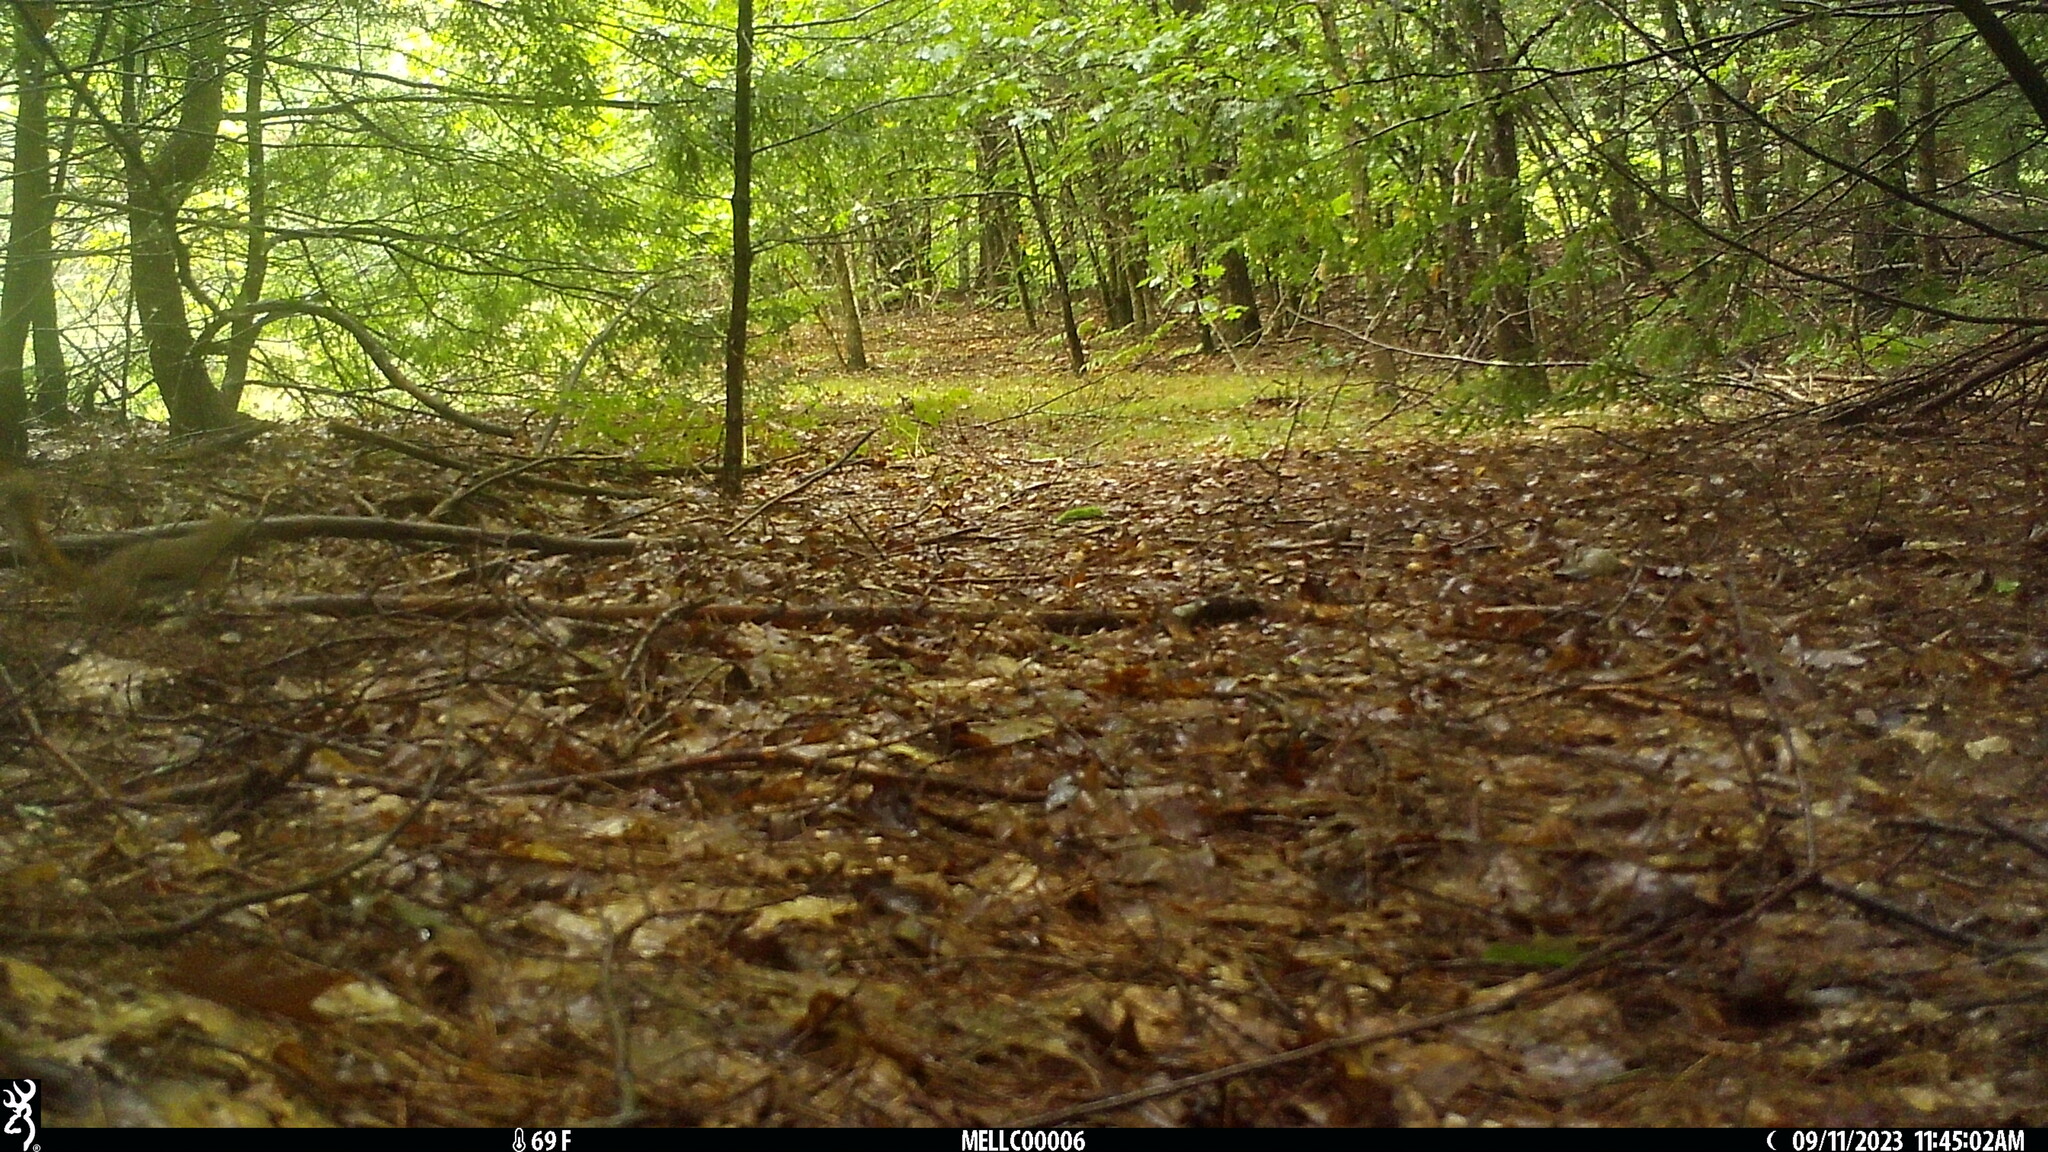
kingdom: Animalia
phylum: Chordata
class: Mammalia
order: Rodentia
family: Sciuridae
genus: Tamiasciurus
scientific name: Tamiasciurus hudsonicus
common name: Red squirrel
